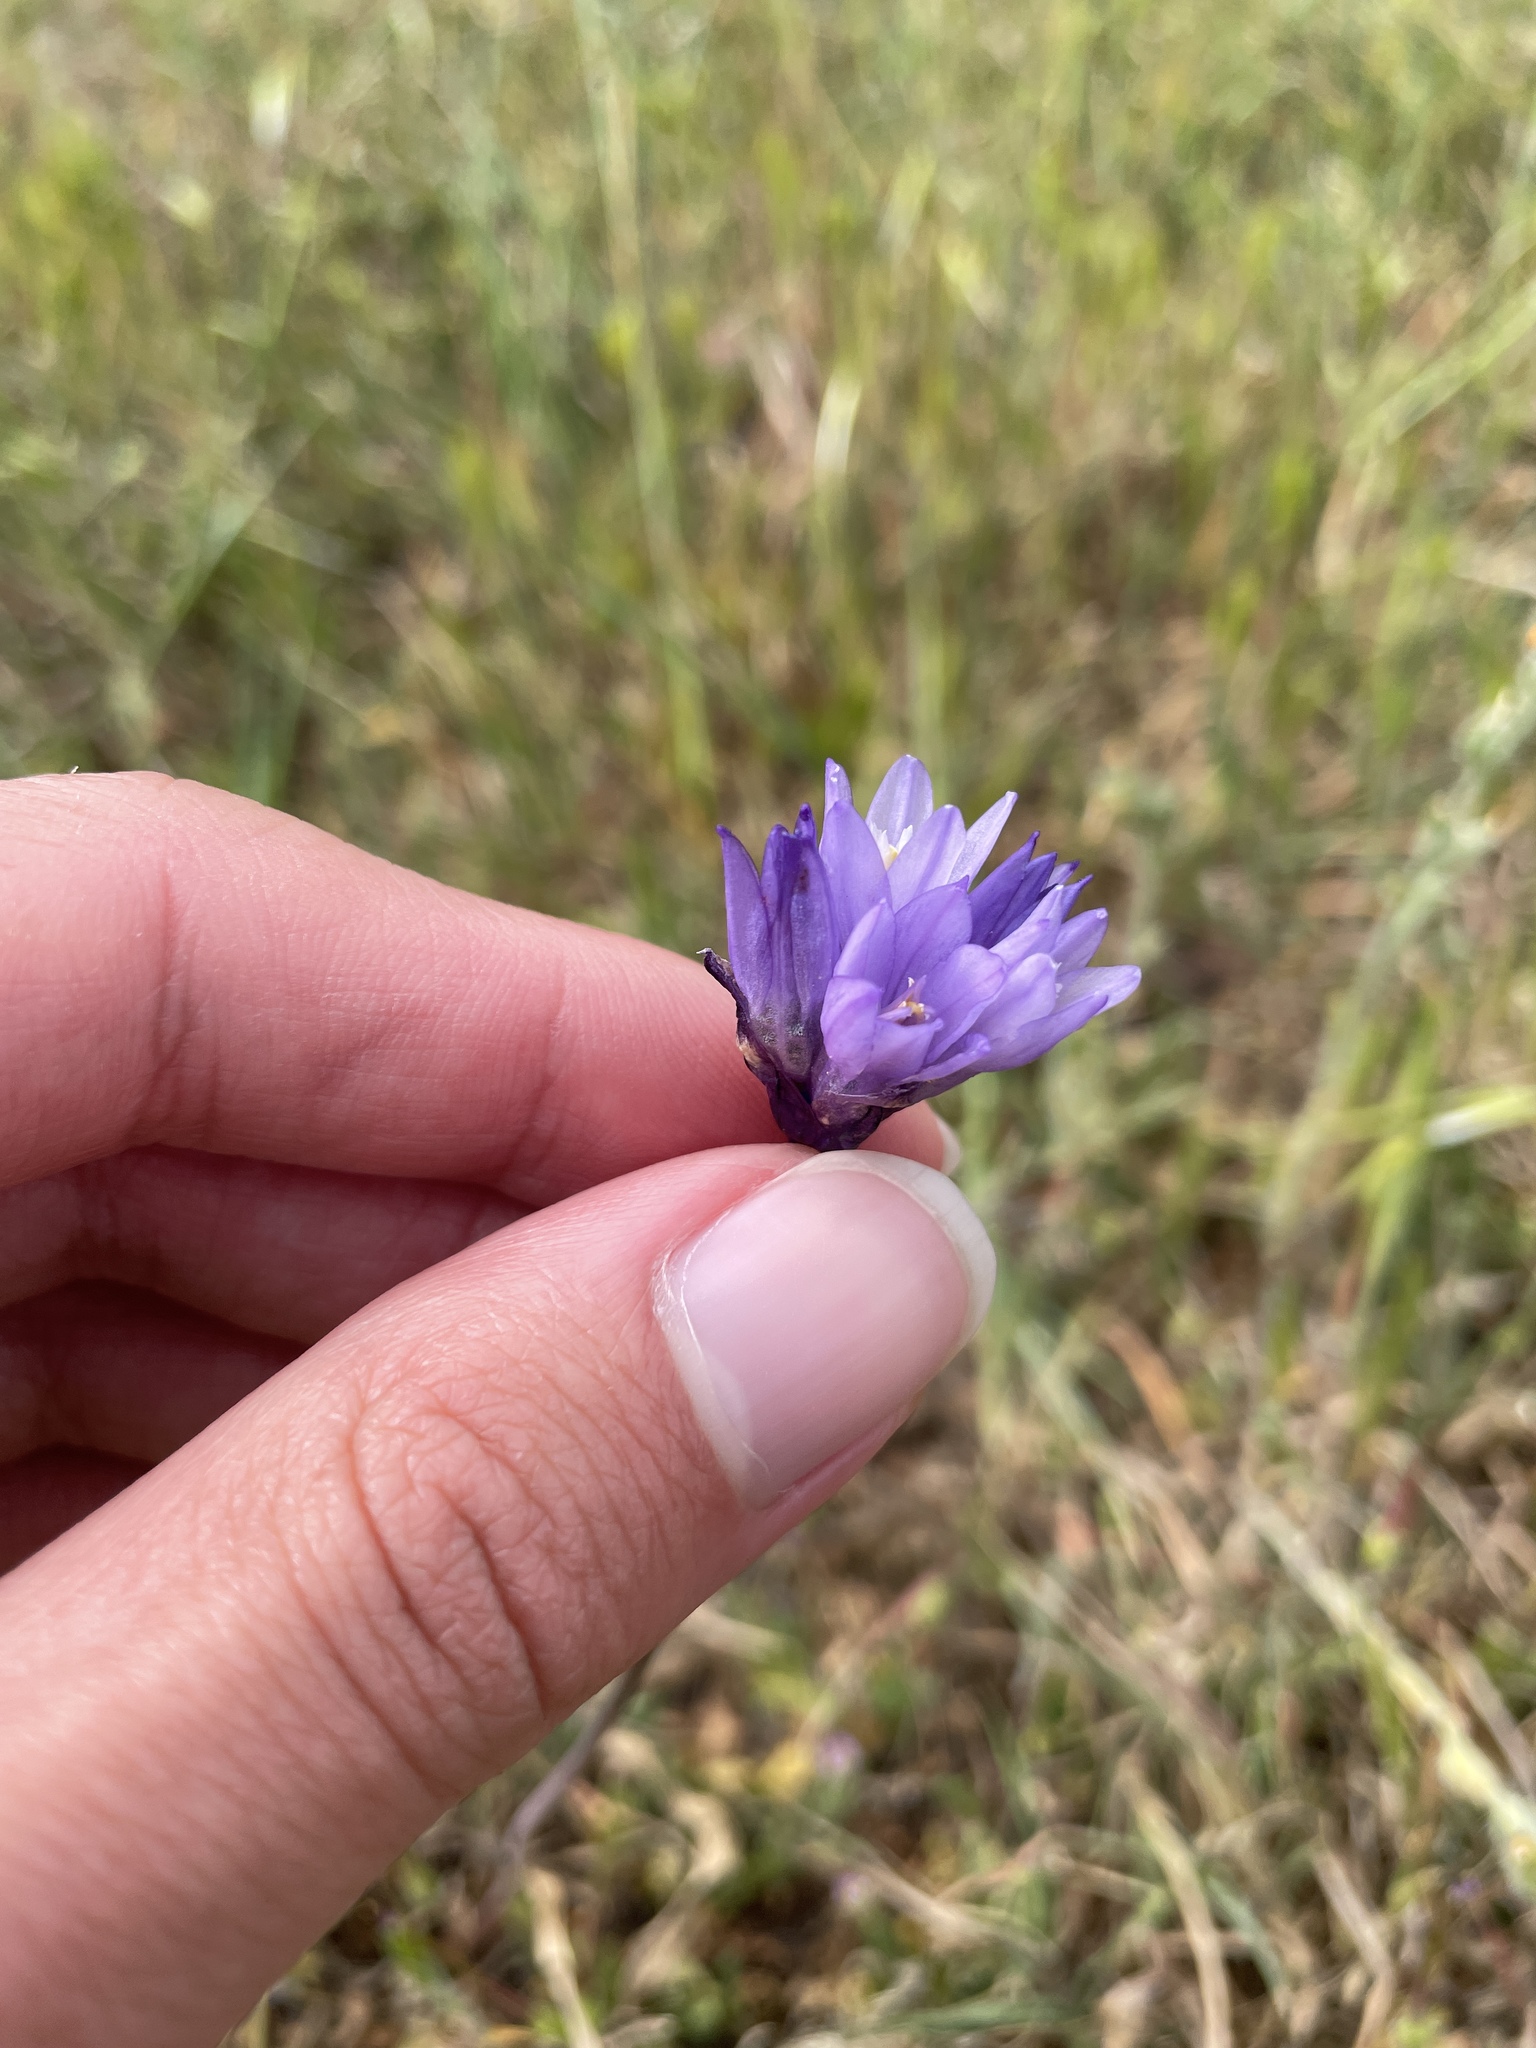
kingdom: Plantae
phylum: Tracheophyta
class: Liliopsida
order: Asparagales
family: Asparagaceae
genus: Dipterostemon
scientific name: Dipterostemon capitatus
